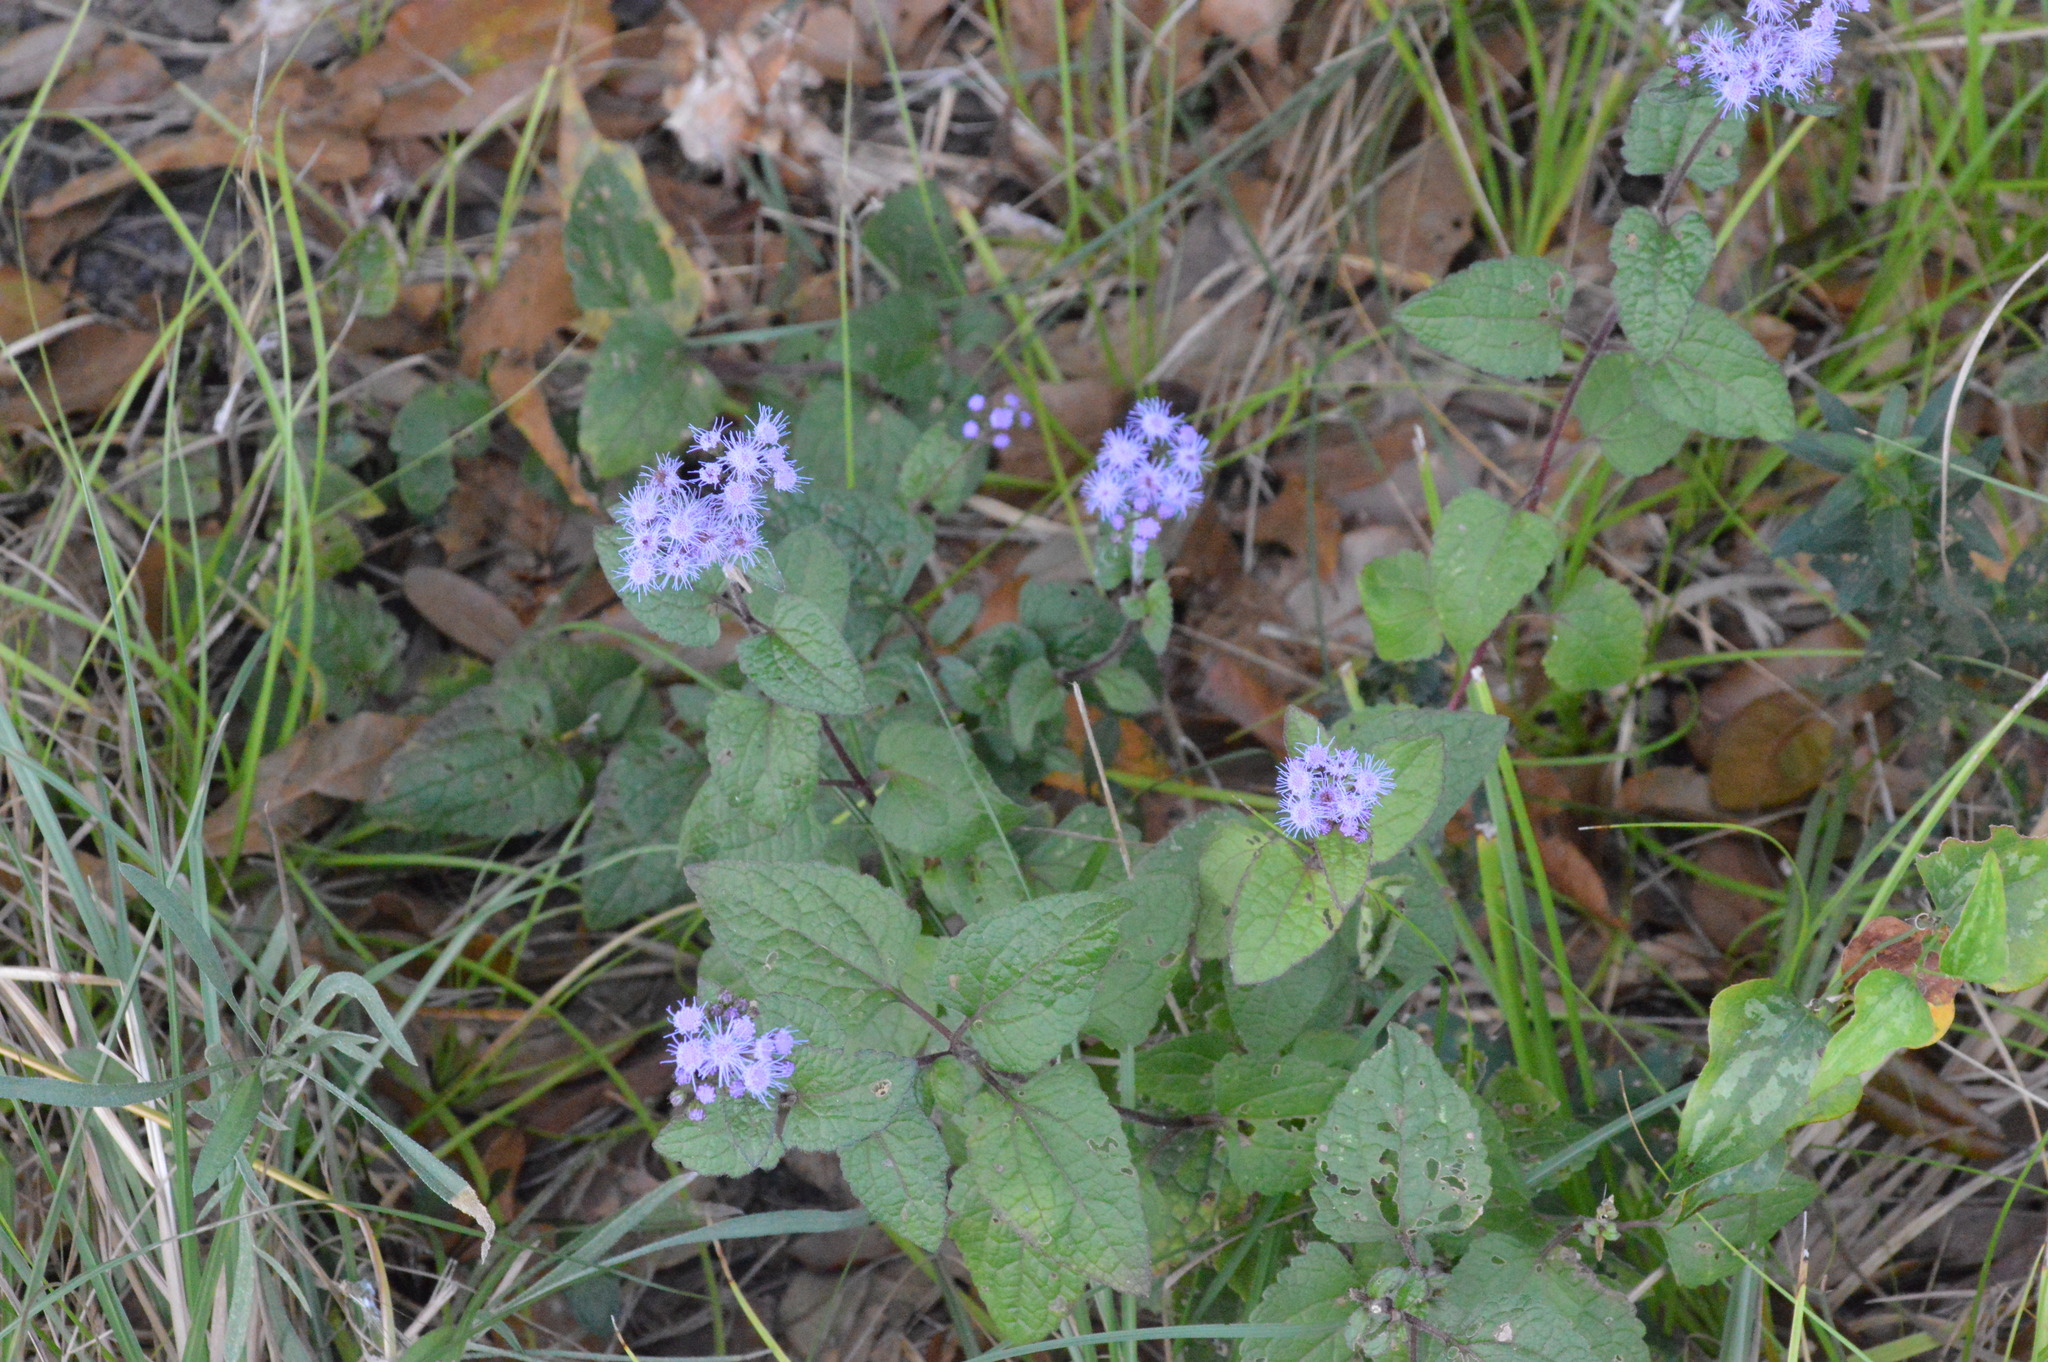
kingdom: Plantae
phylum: Tracheophyta
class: Magnoliopsida
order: Asterales
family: Asteraceae
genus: Conoclinium
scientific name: Conoclinium coelestinum
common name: Blue mistflower
